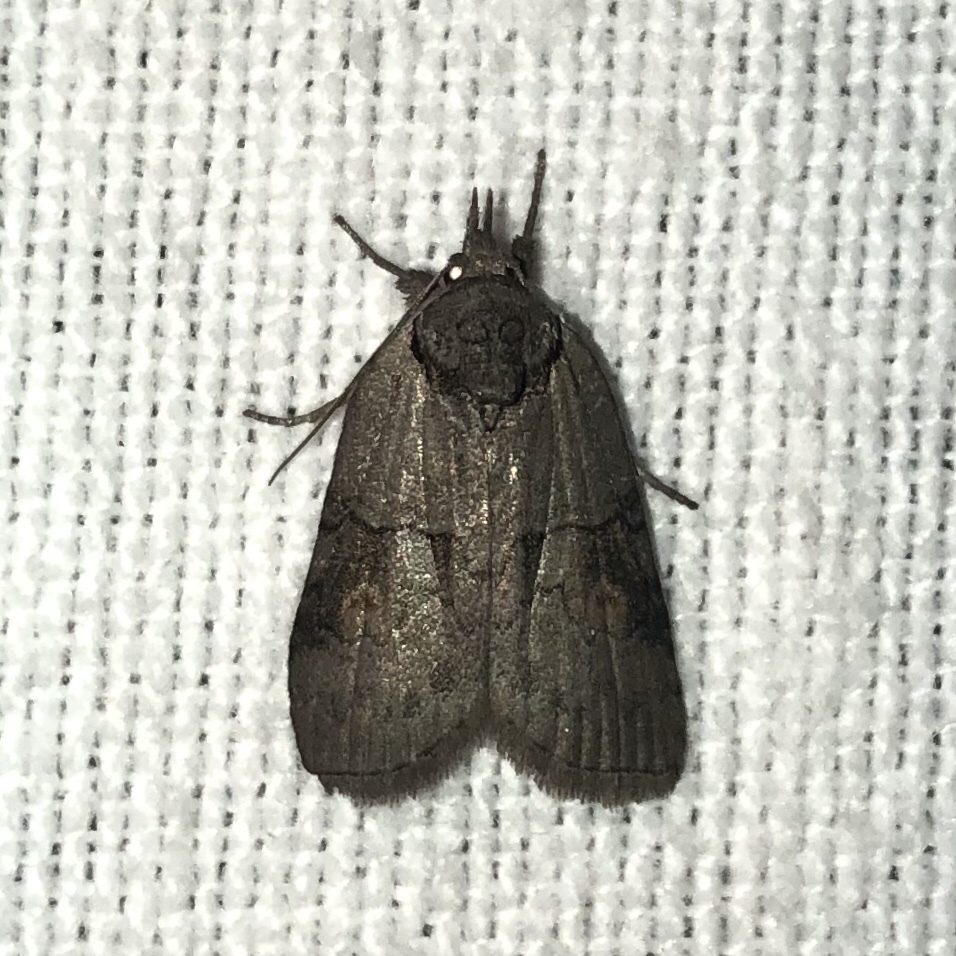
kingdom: Animalia
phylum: Arthropoda
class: Insecta
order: Lepidoptera
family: Nolidae
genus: Nycteola
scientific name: Nycteola cinereana
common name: Grey midget moth
